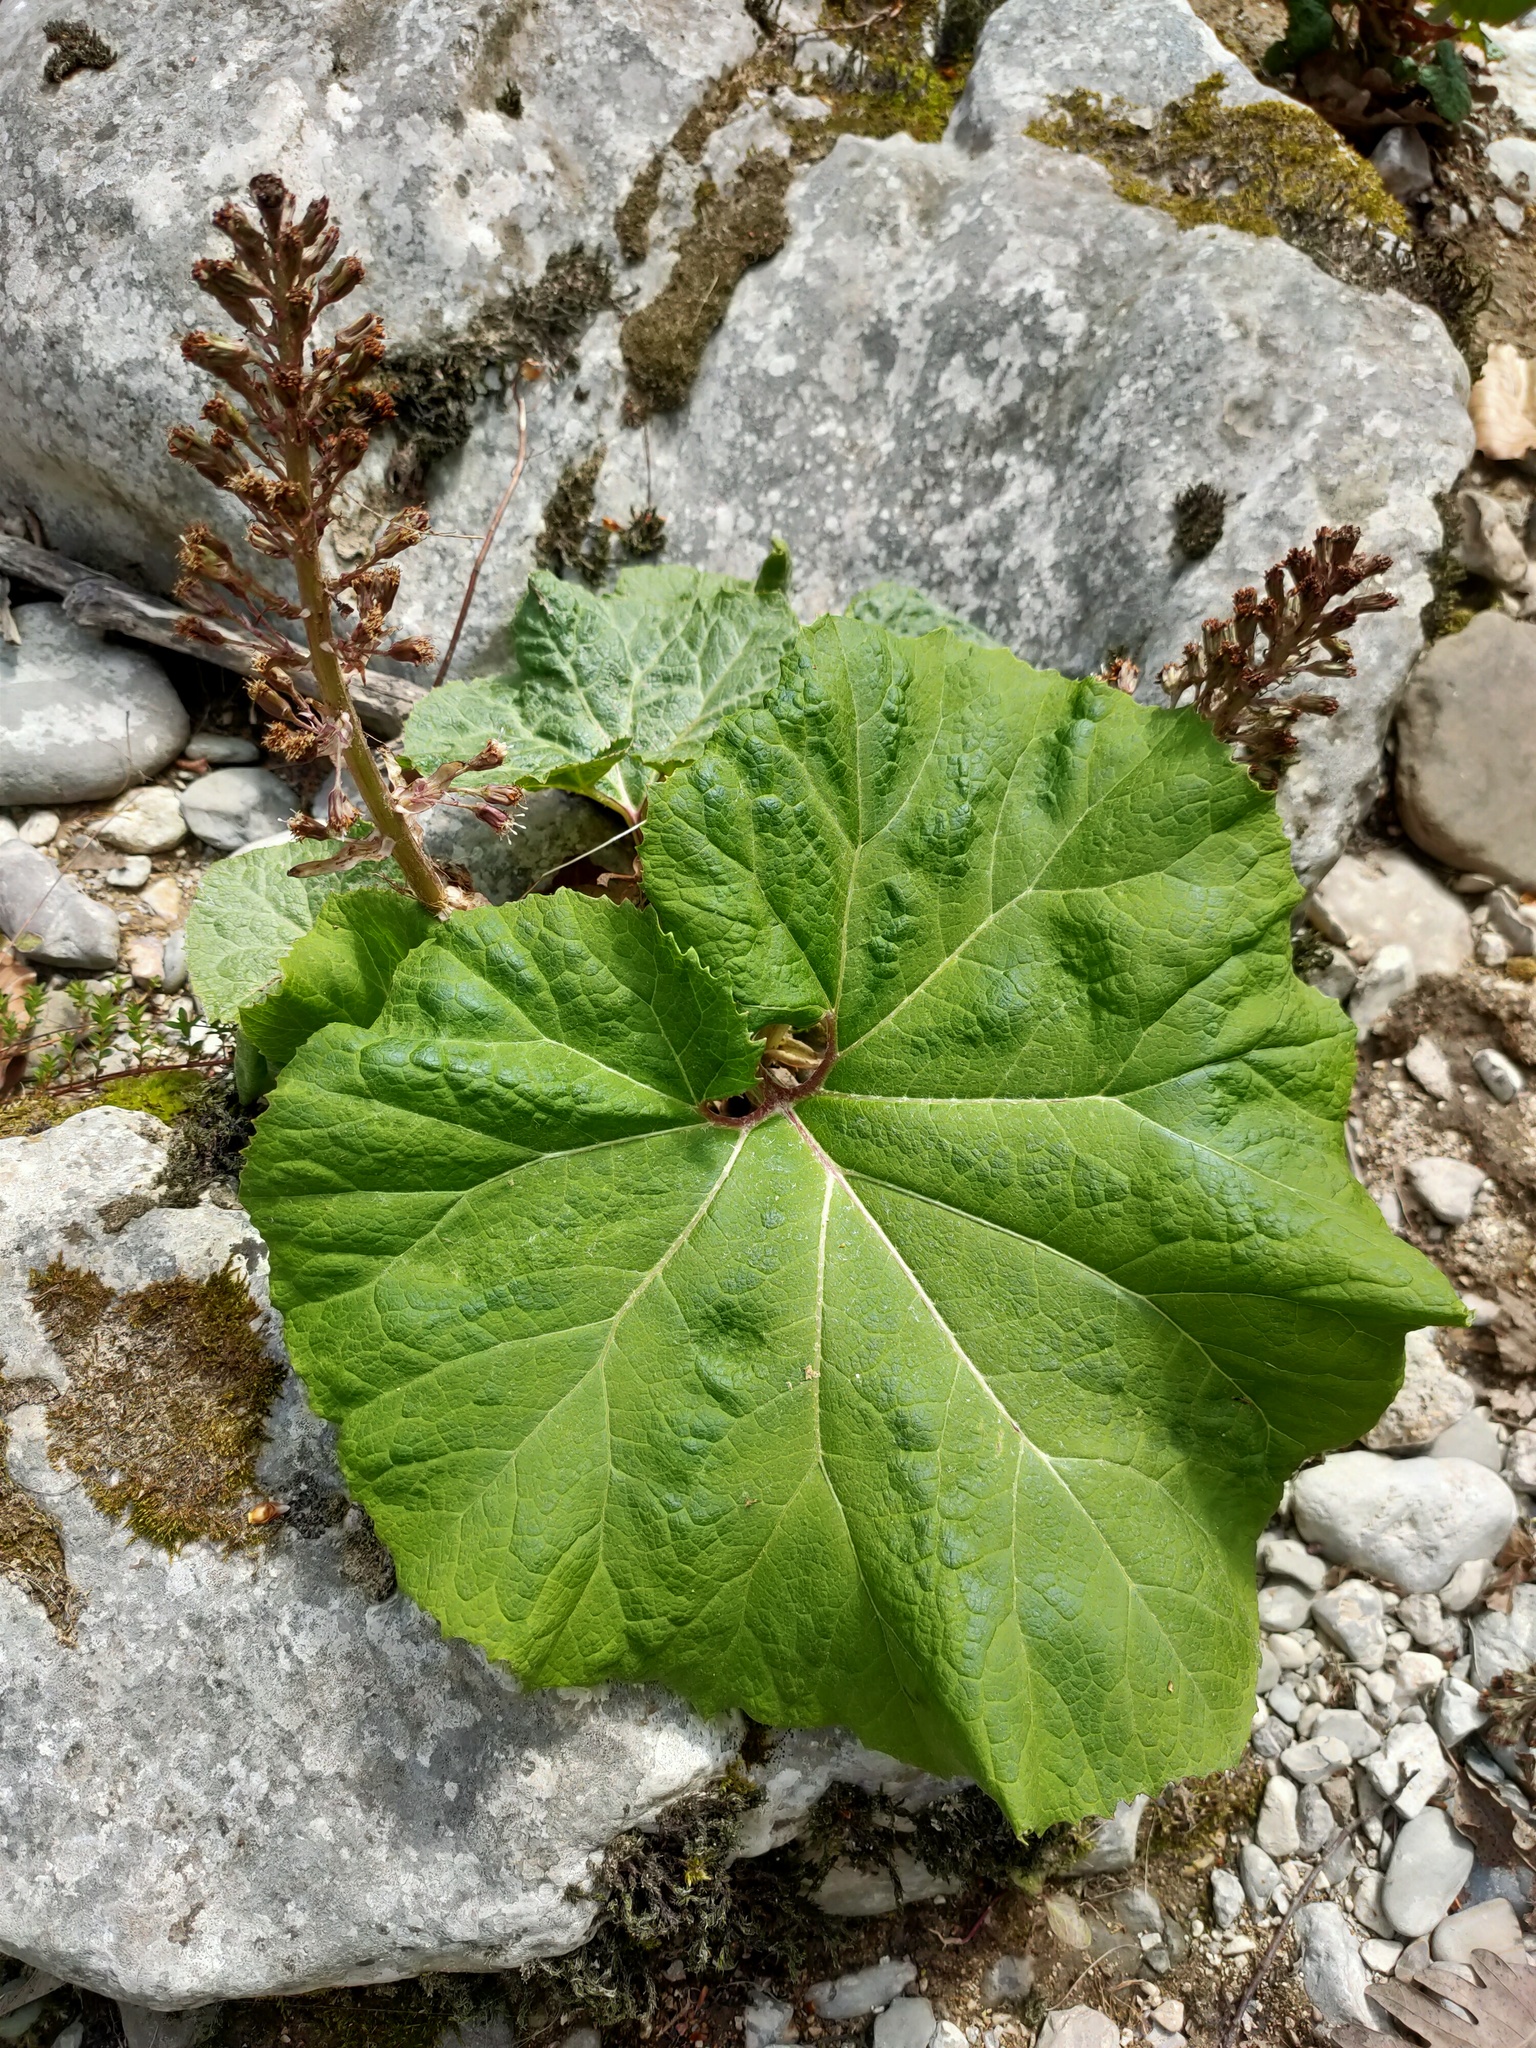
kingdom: Plantae
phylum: Tracheophyta
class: Magnoliopsida
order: Asterales
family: Asteraceae
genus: Petasites
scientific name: Petasites hybridus
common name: Butterbur
